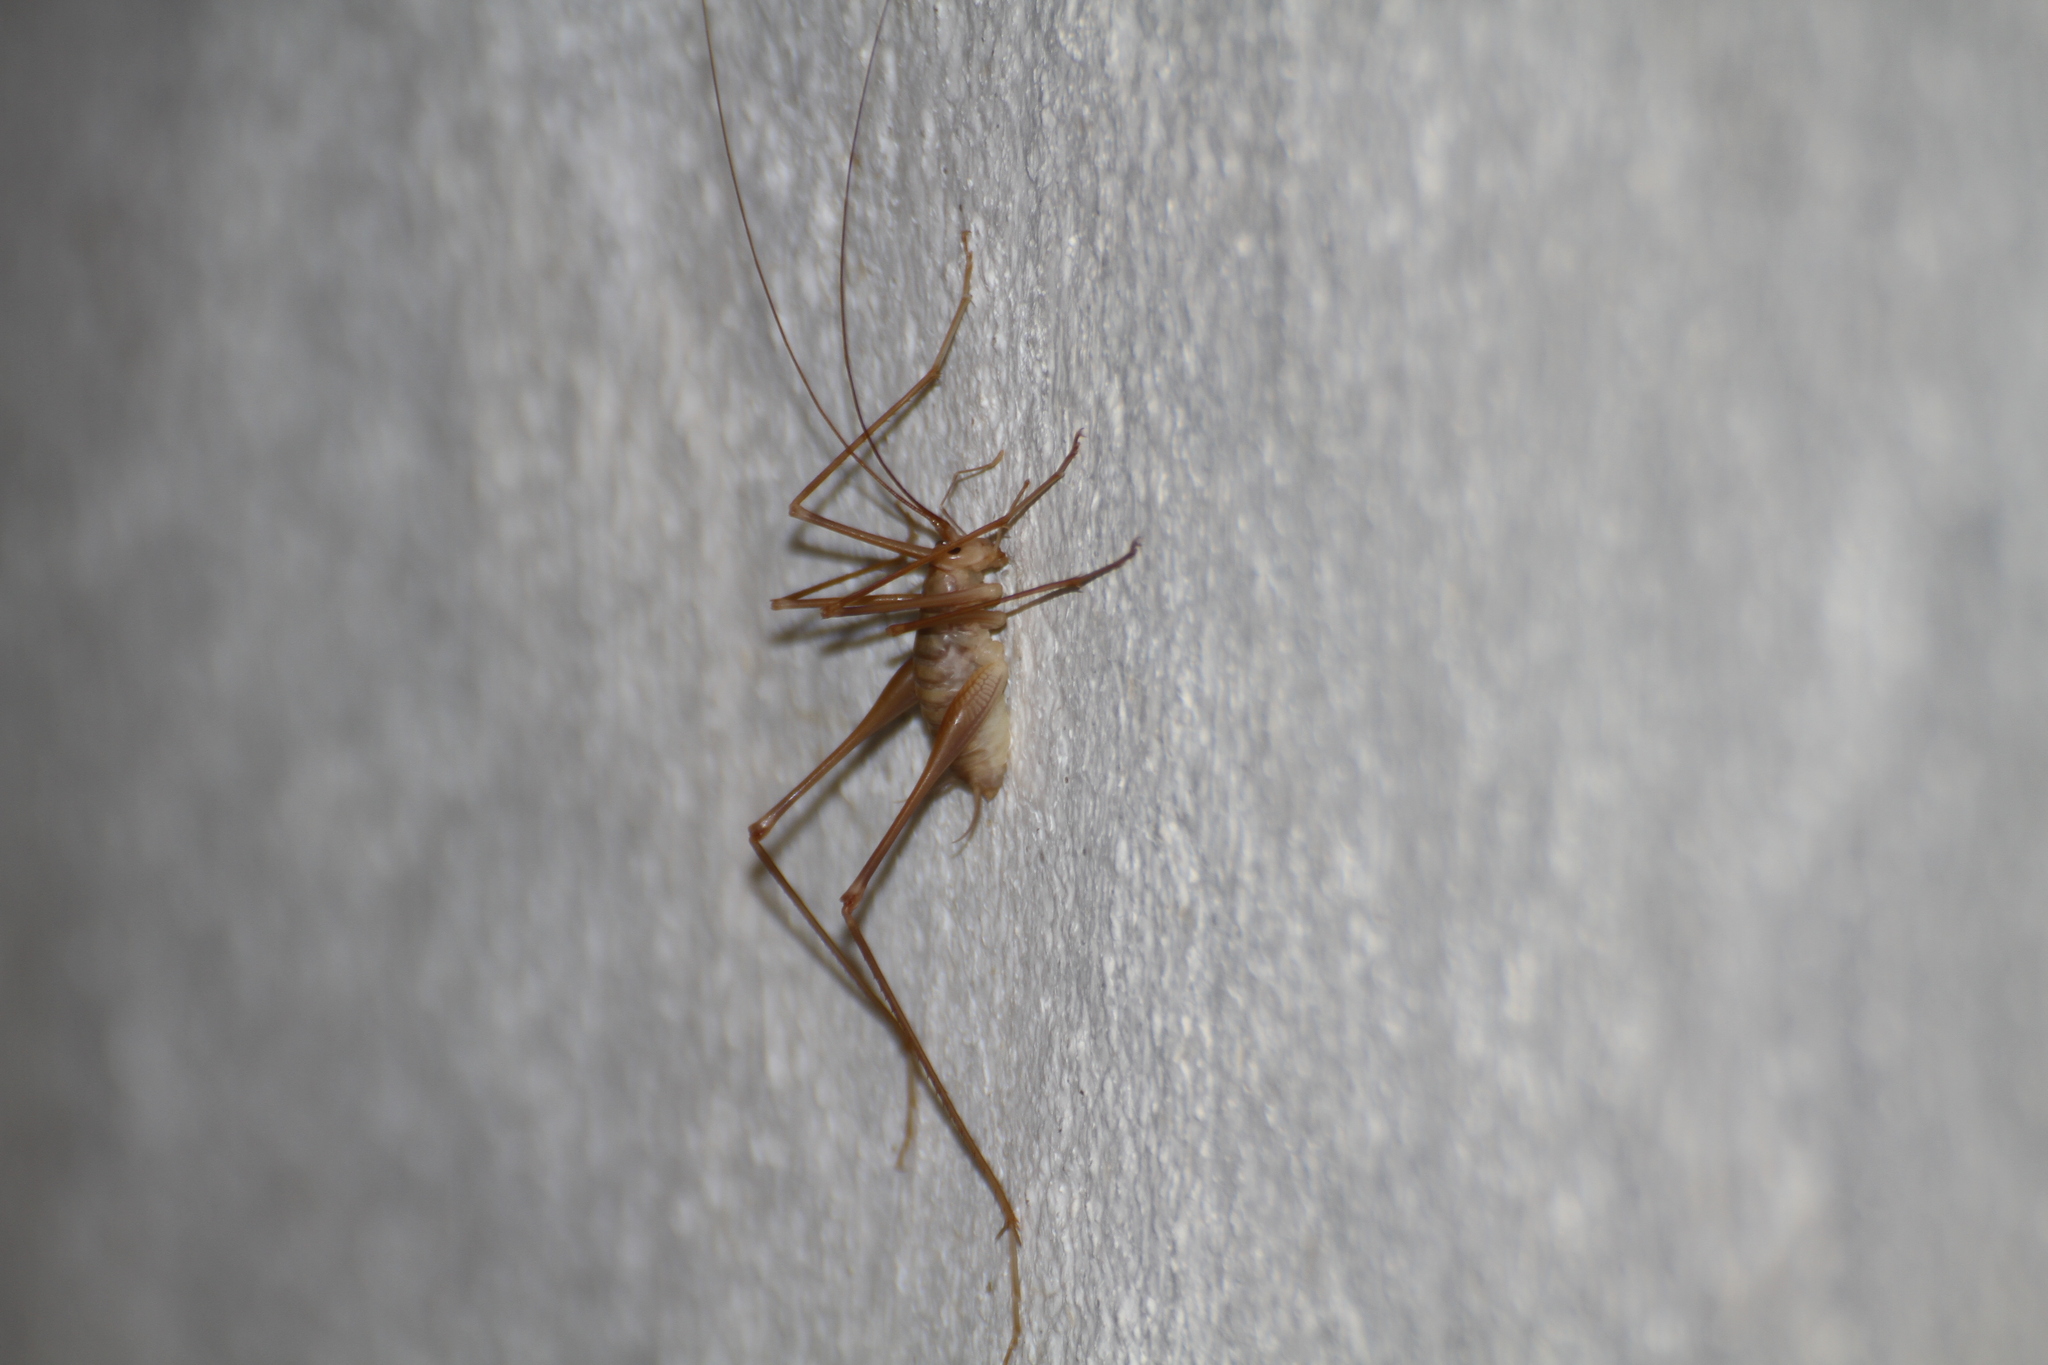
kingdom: Animalia
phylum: Arthropoda
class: Insecta
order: Orthoptera
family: Rhaphidophoridae
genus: Dolichopoda
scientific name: Dolichopoda azami
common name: Azam's cave-cricket
